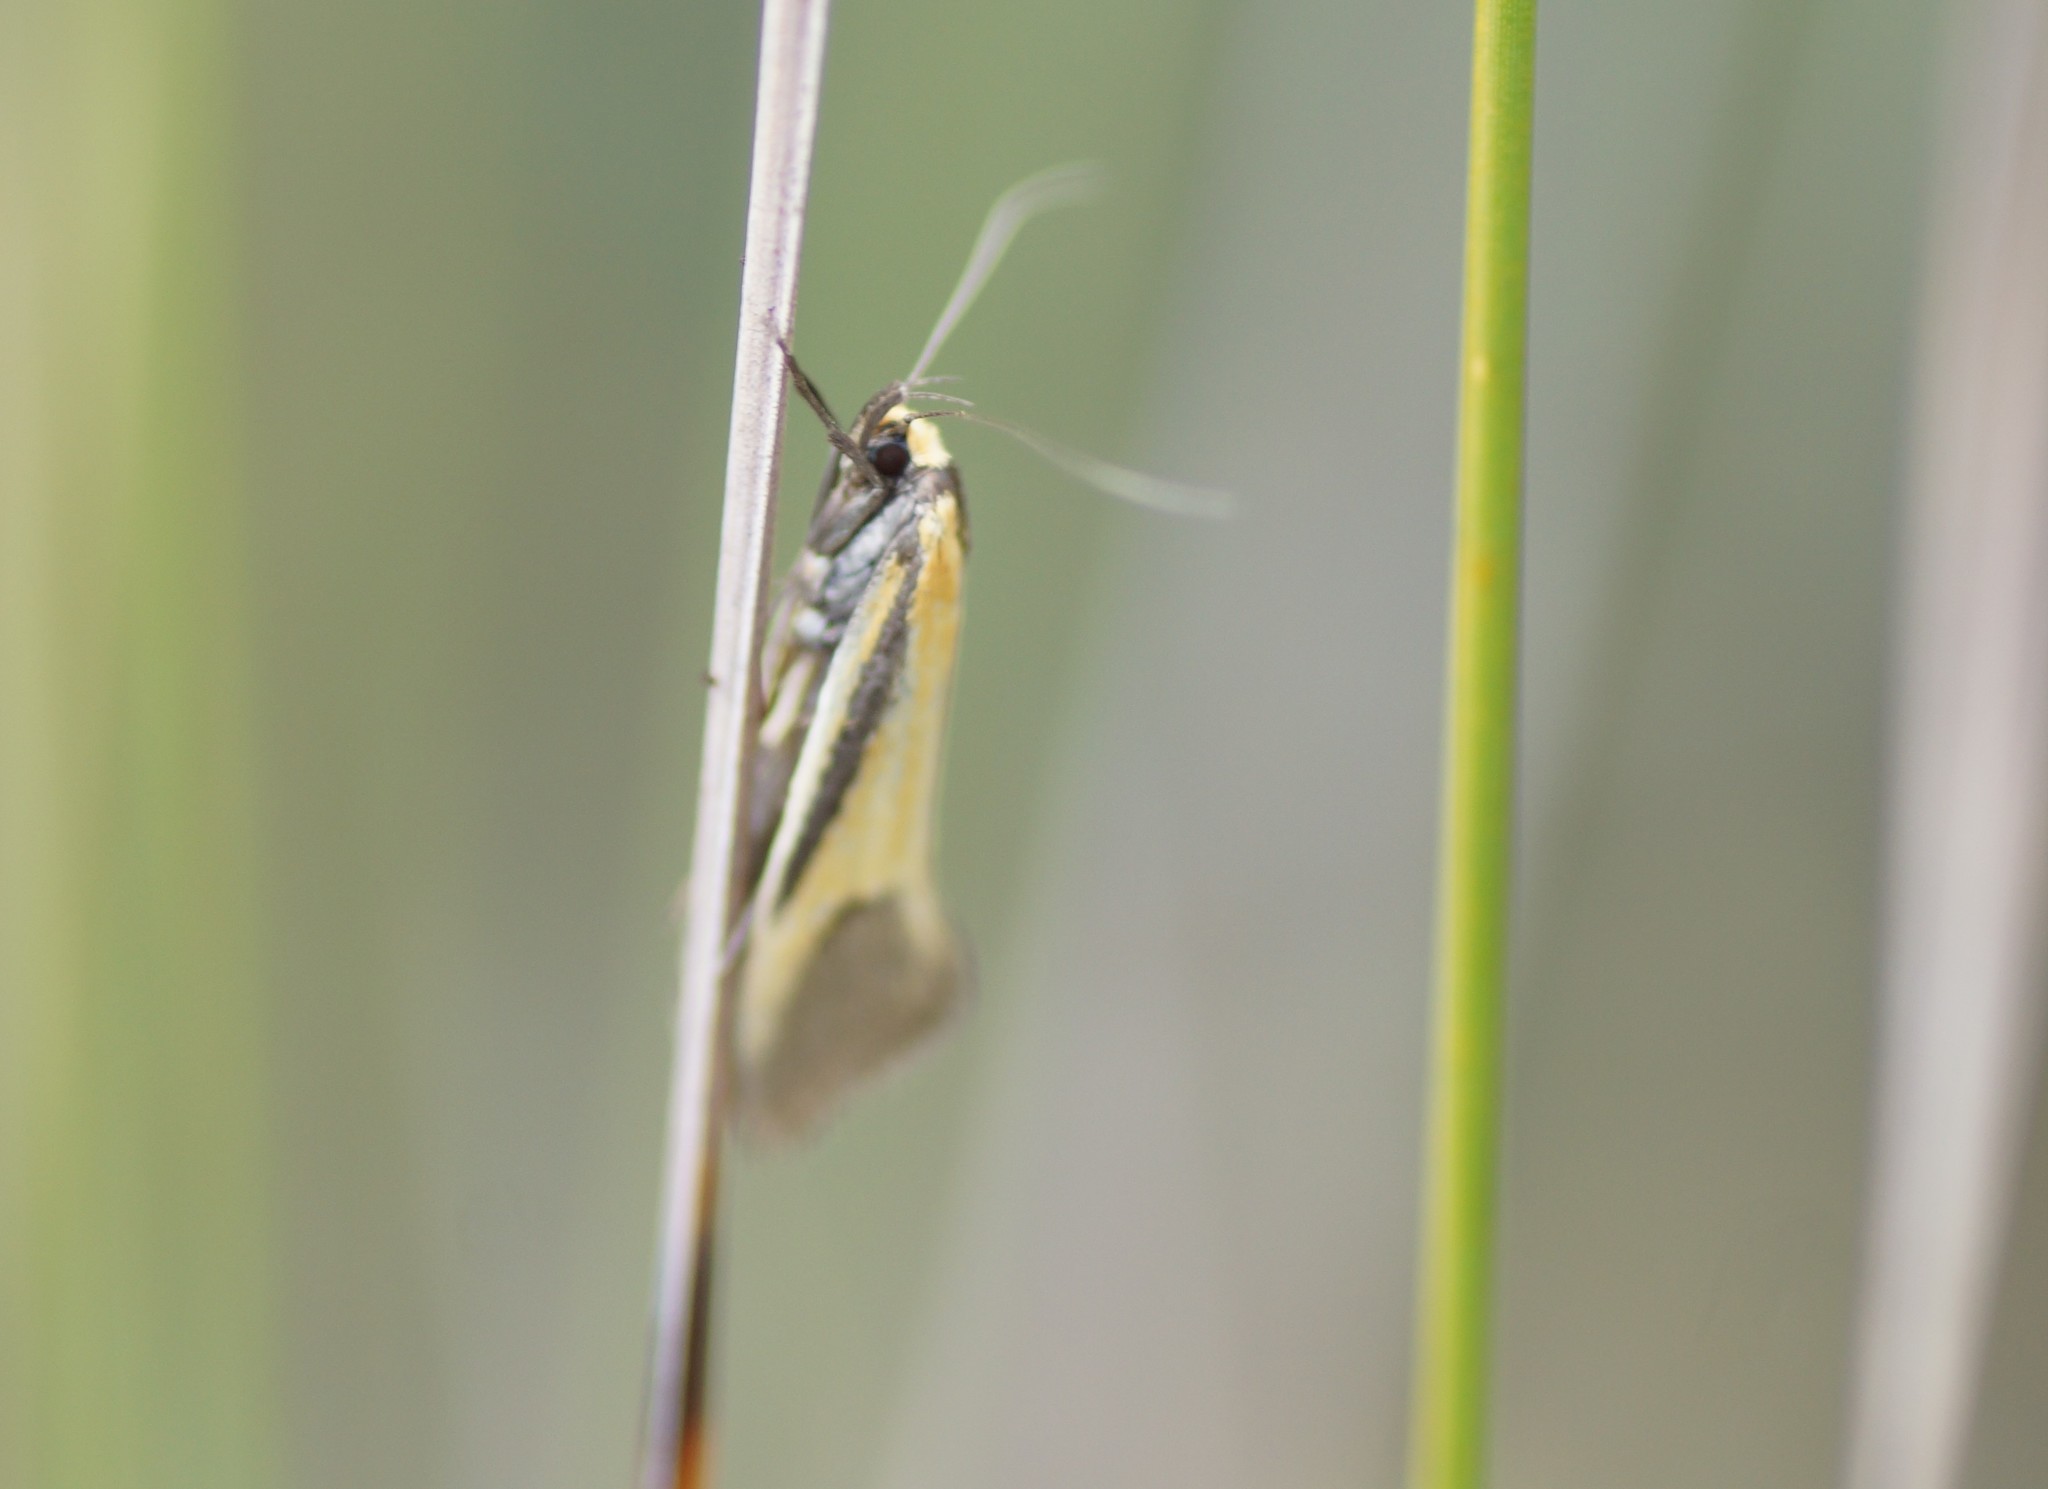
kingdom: Animalia
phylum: Arthropoda
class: Insecta
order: Lepidoptera
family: Oecophoridae
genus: Philobota
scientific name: Philobota arabella
